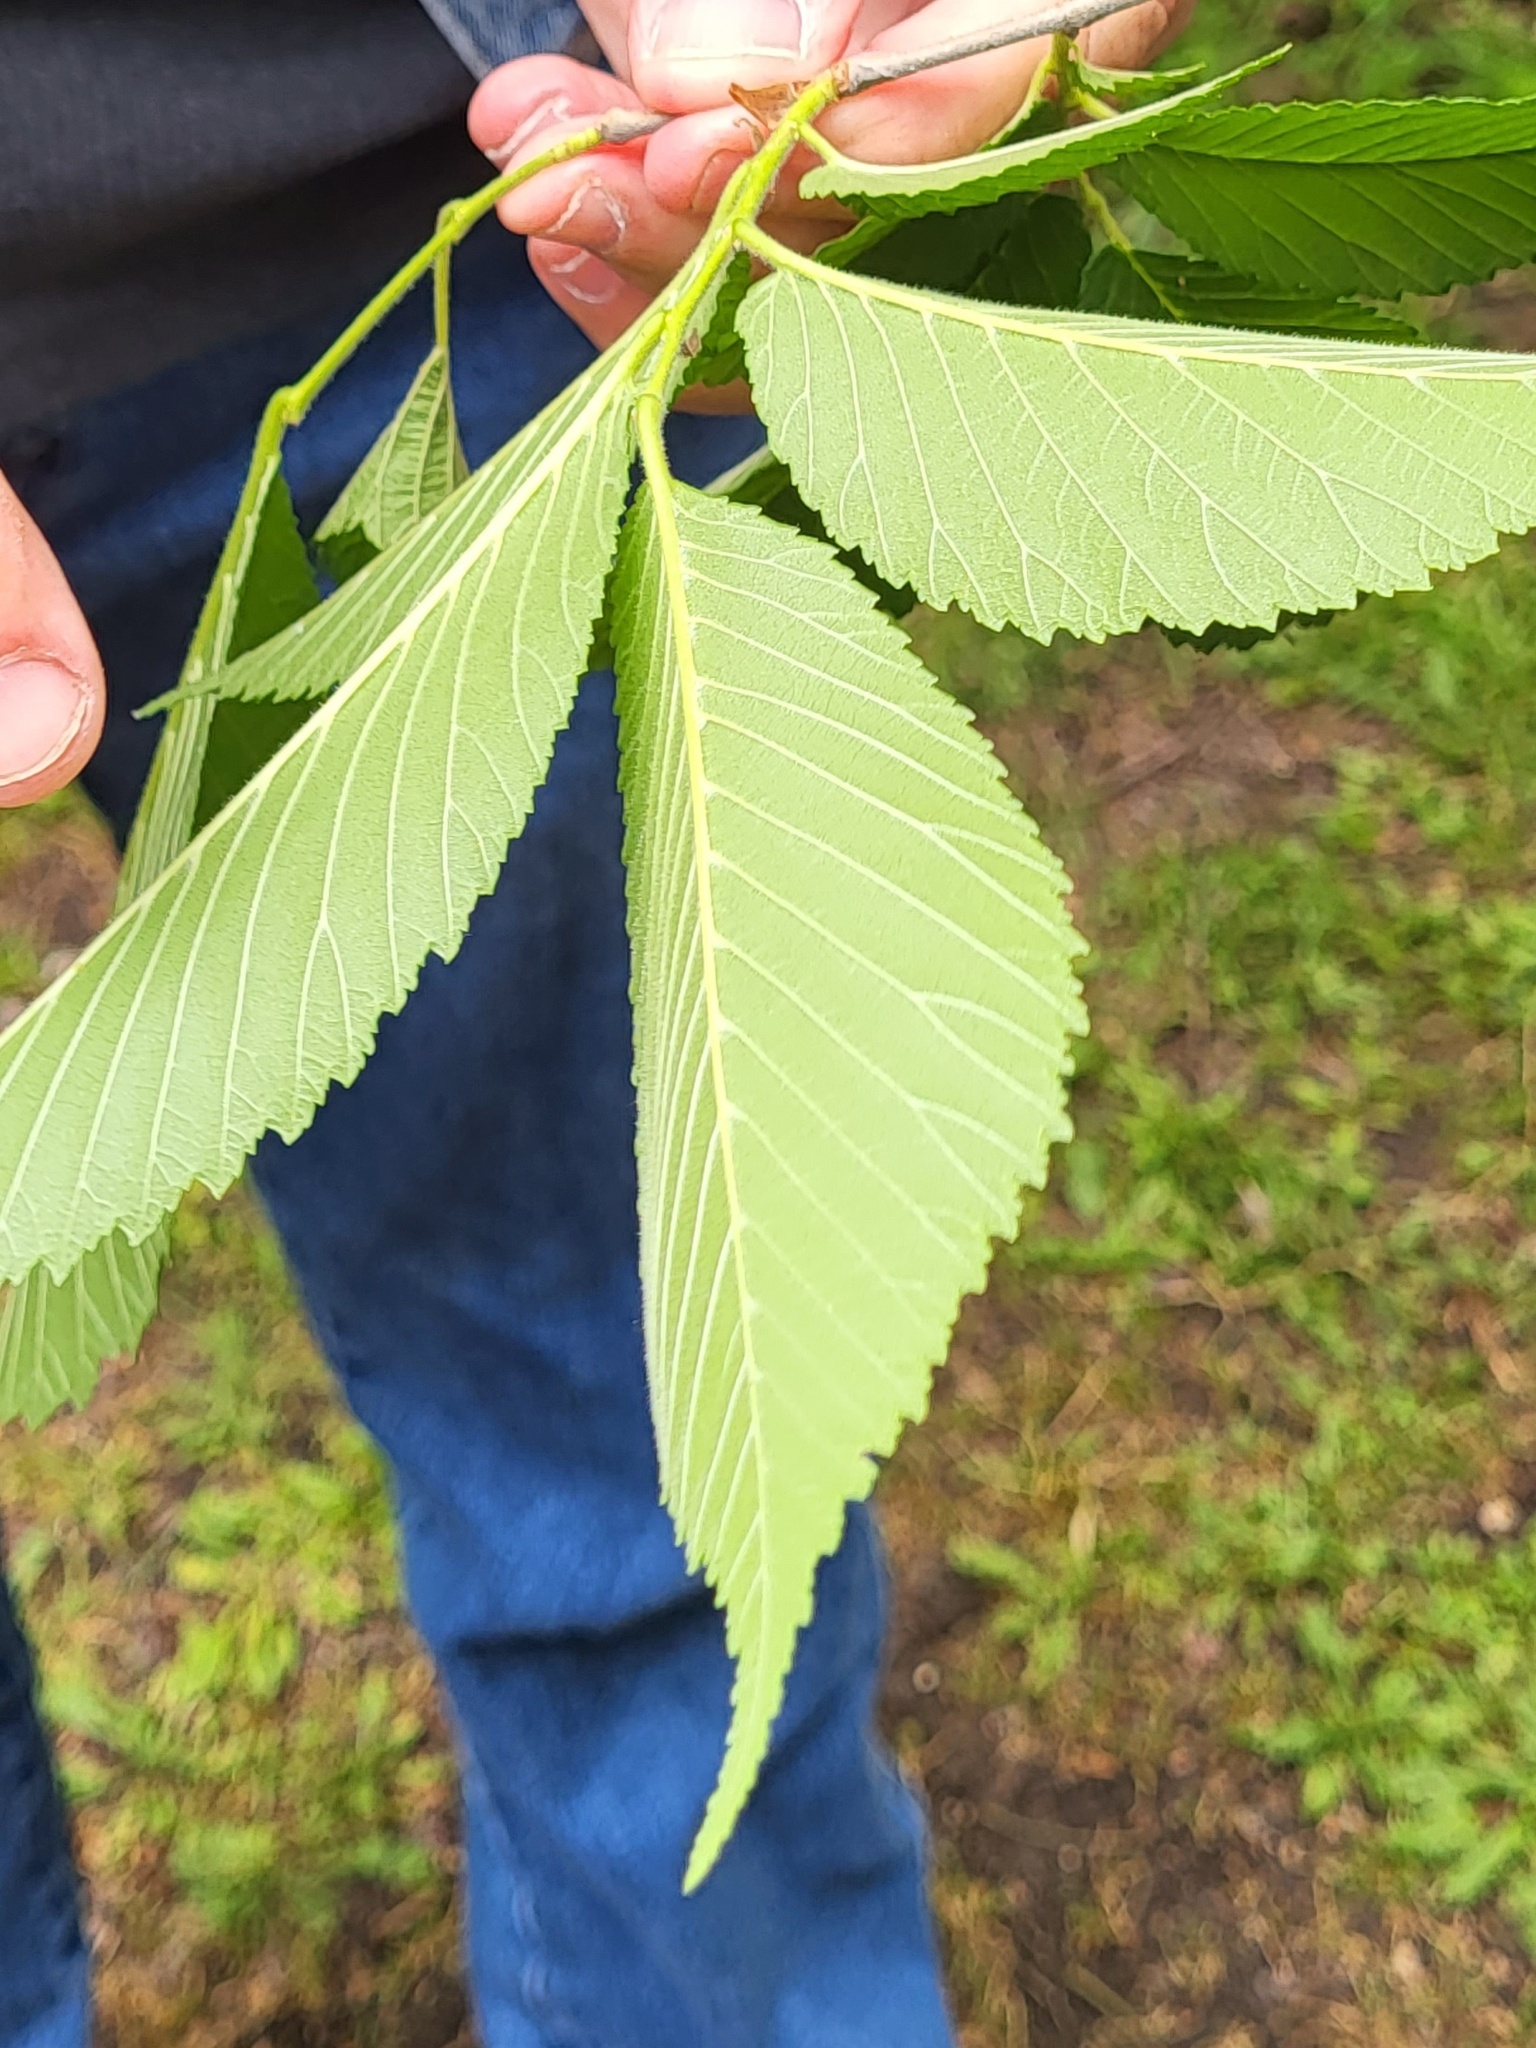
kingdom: Plantae
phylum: Tracheophyta
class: Magnoliopsida
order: Rosales
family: Ulmaceae
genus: Ulmus
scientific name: Ulmus rubra
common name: Slippery elm
